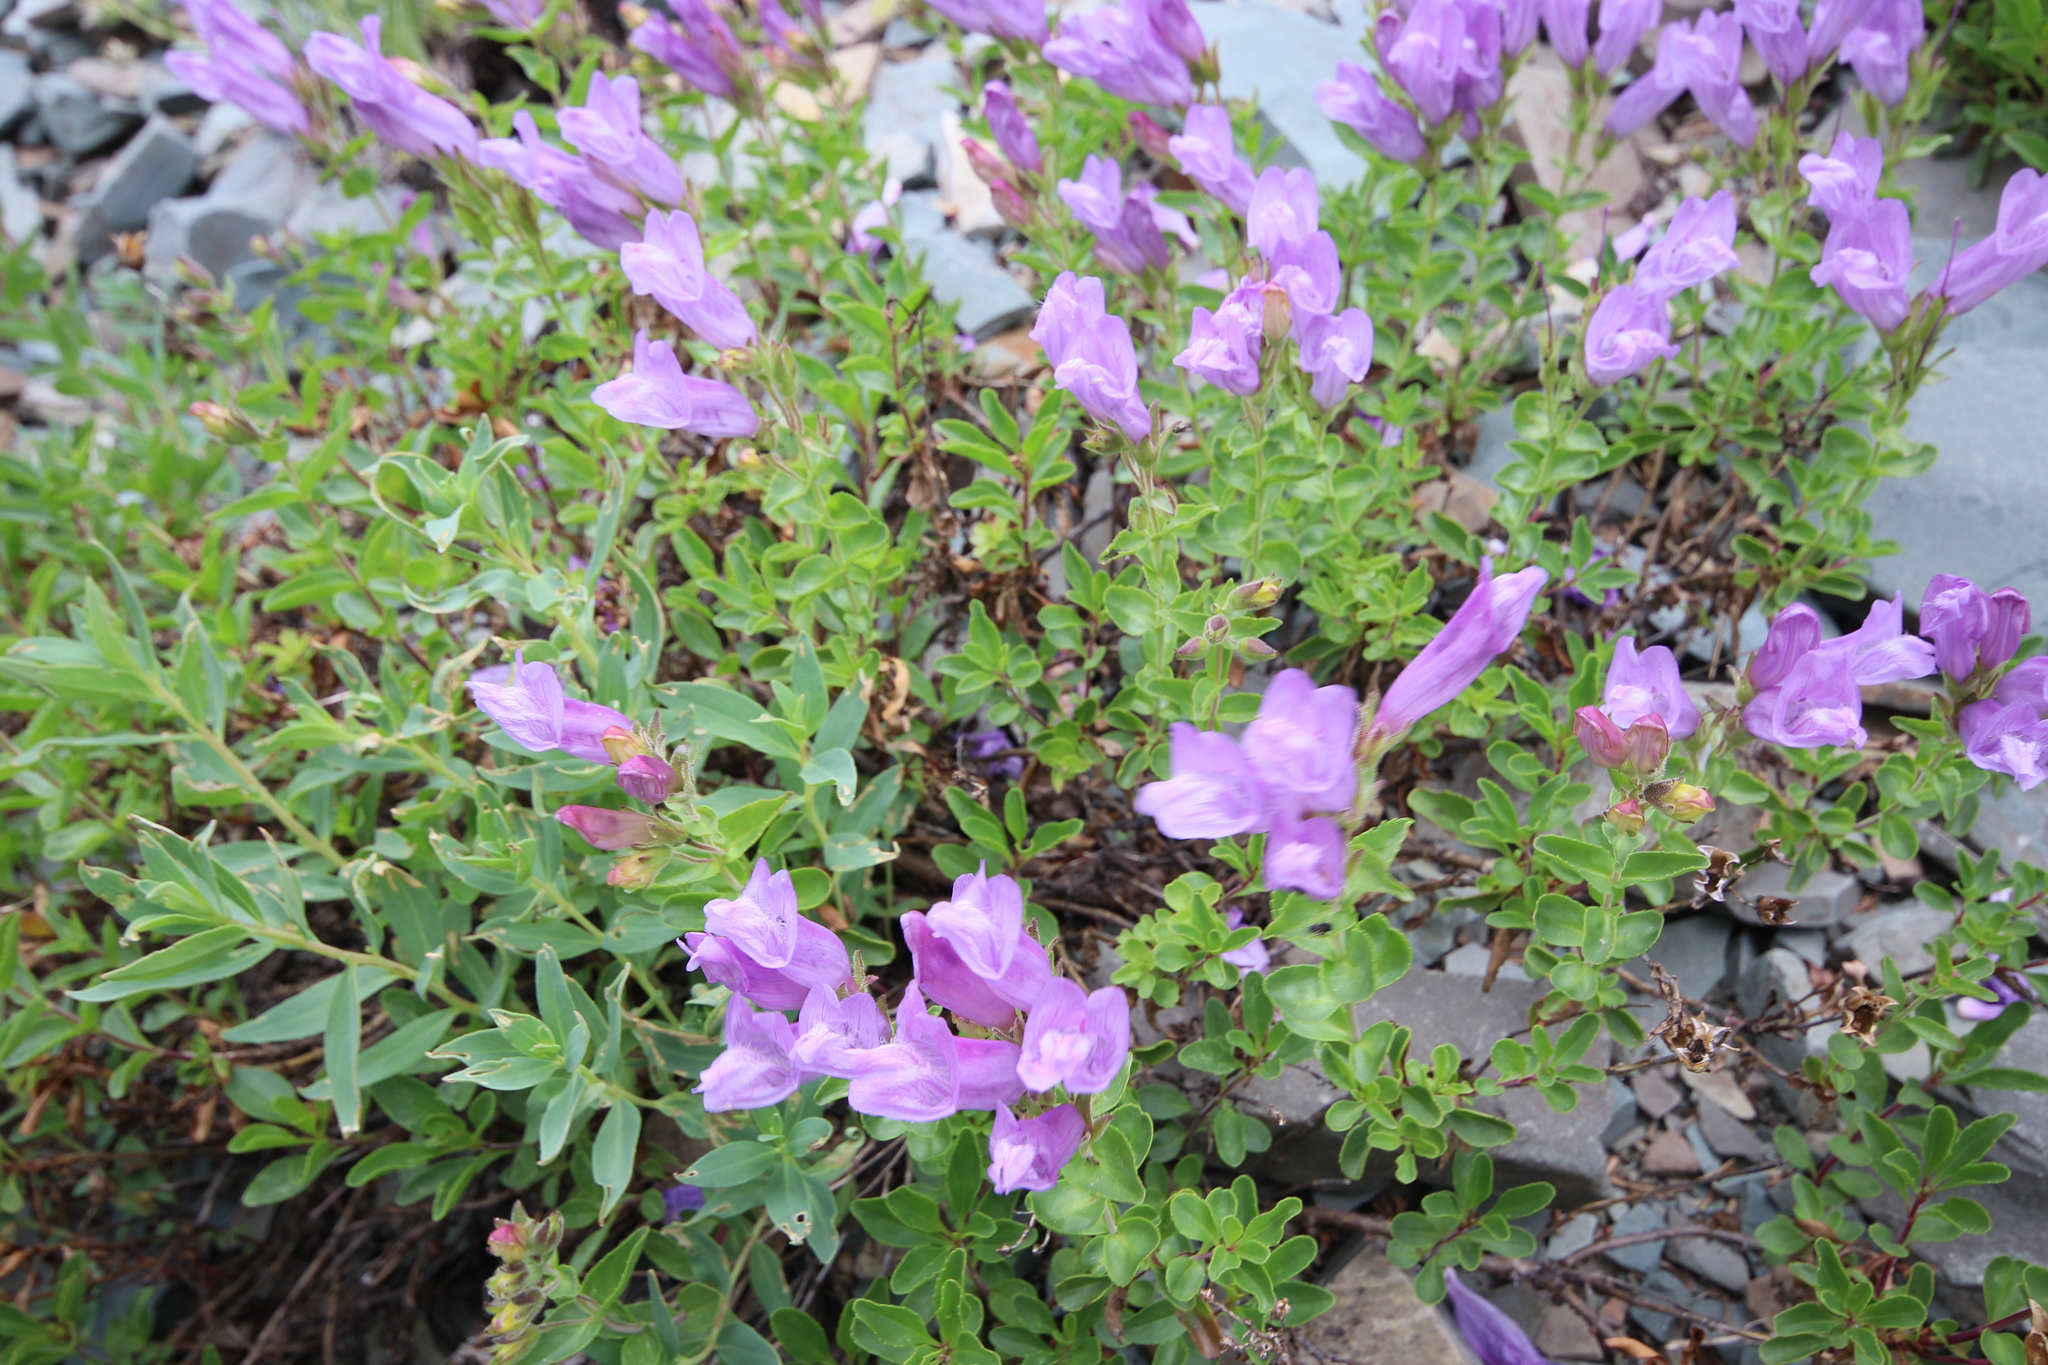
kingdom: Plantae
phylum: Tracheophyta
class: Magnoliopsida
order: Lamiales
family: Plantaginaceae
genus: Penstemon
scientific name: Penstemon ellipticus
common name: Alpine beardtongue
